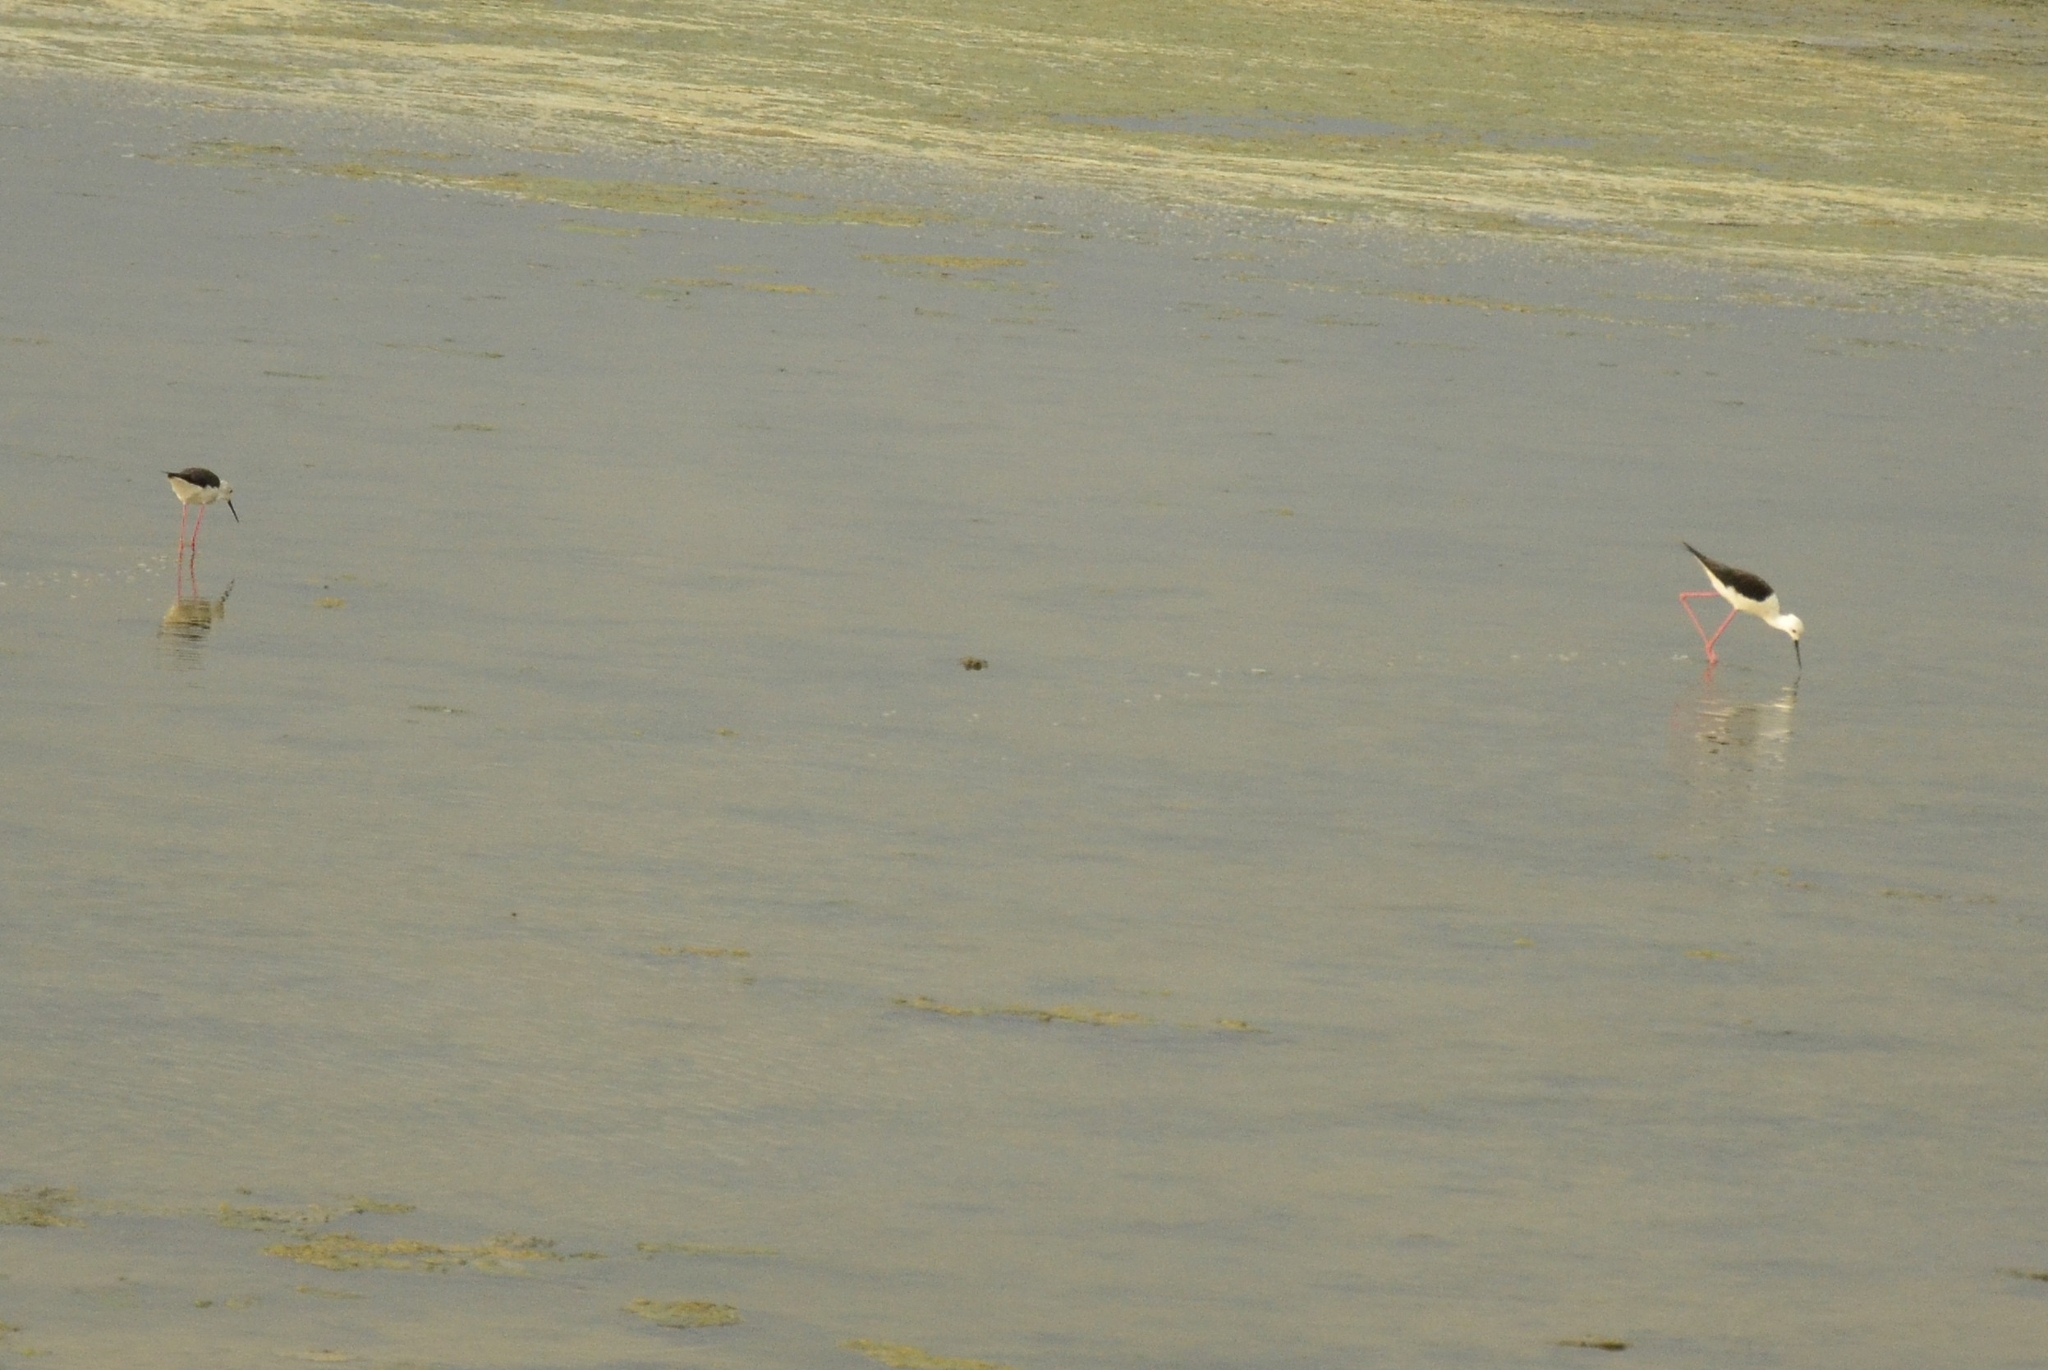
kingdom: Animalia
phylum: Chordata
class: Aves
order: Charadriiformes
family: Recurvirostridae
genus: Himantopus
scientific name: Himantopus himantopus
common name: Black-winged stilt
